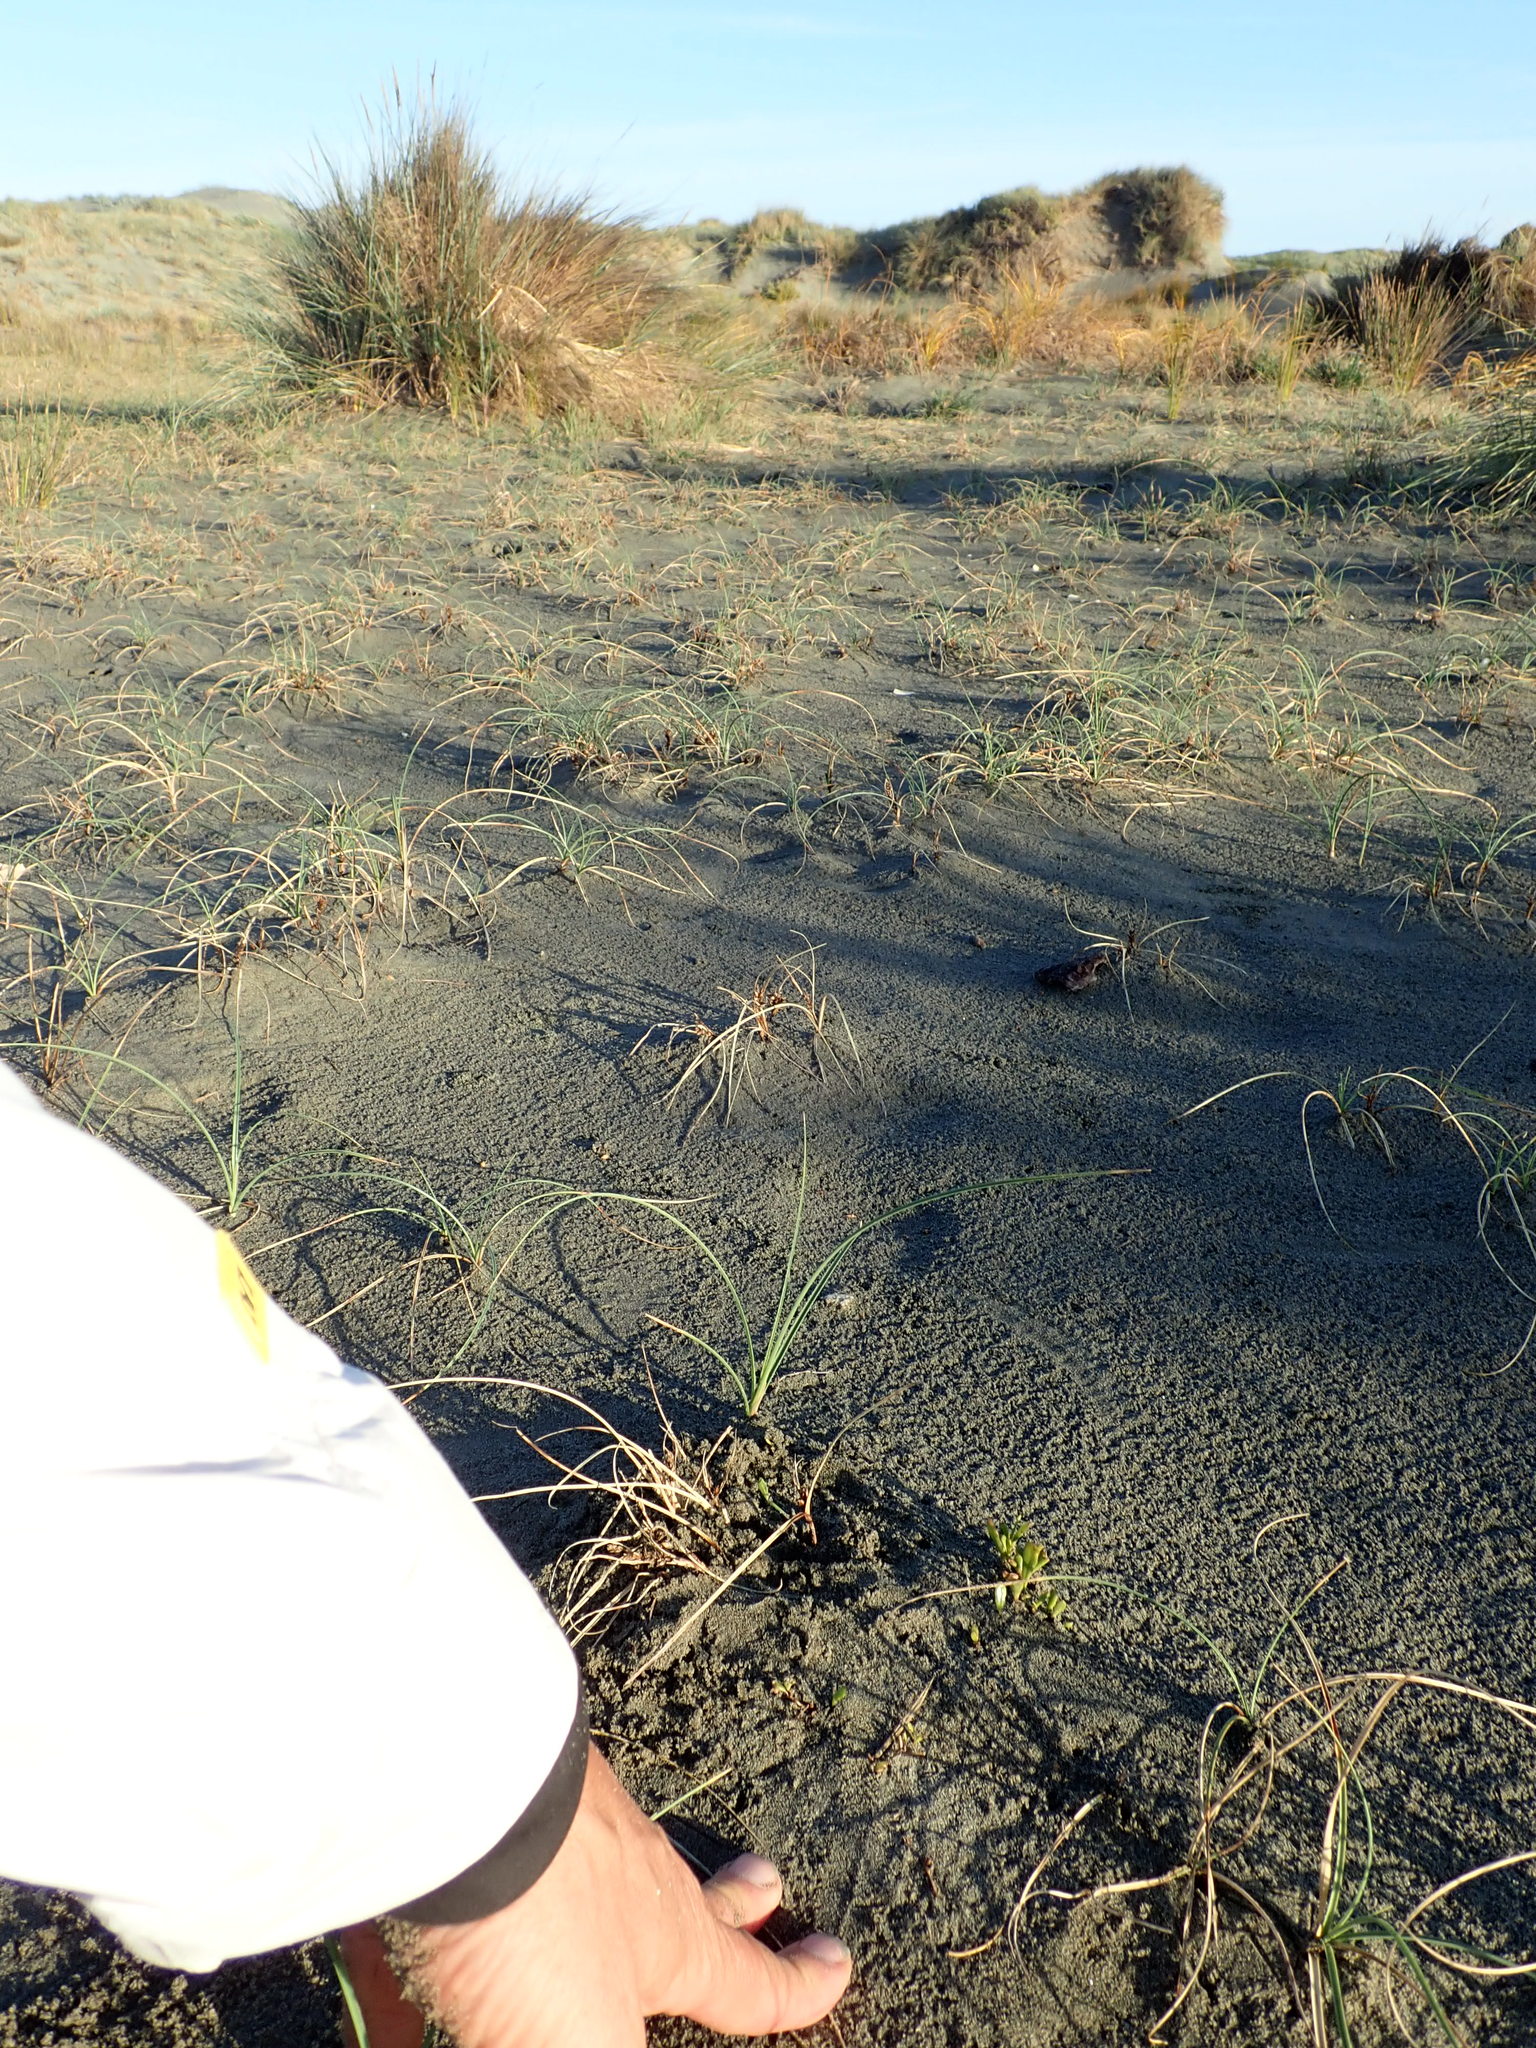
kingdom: Plantae
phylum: Tracheophyta
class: Magnoliopsida
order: Asterales
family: Goodeniaceae
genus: Goodenia
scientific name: Goodenia radicans
